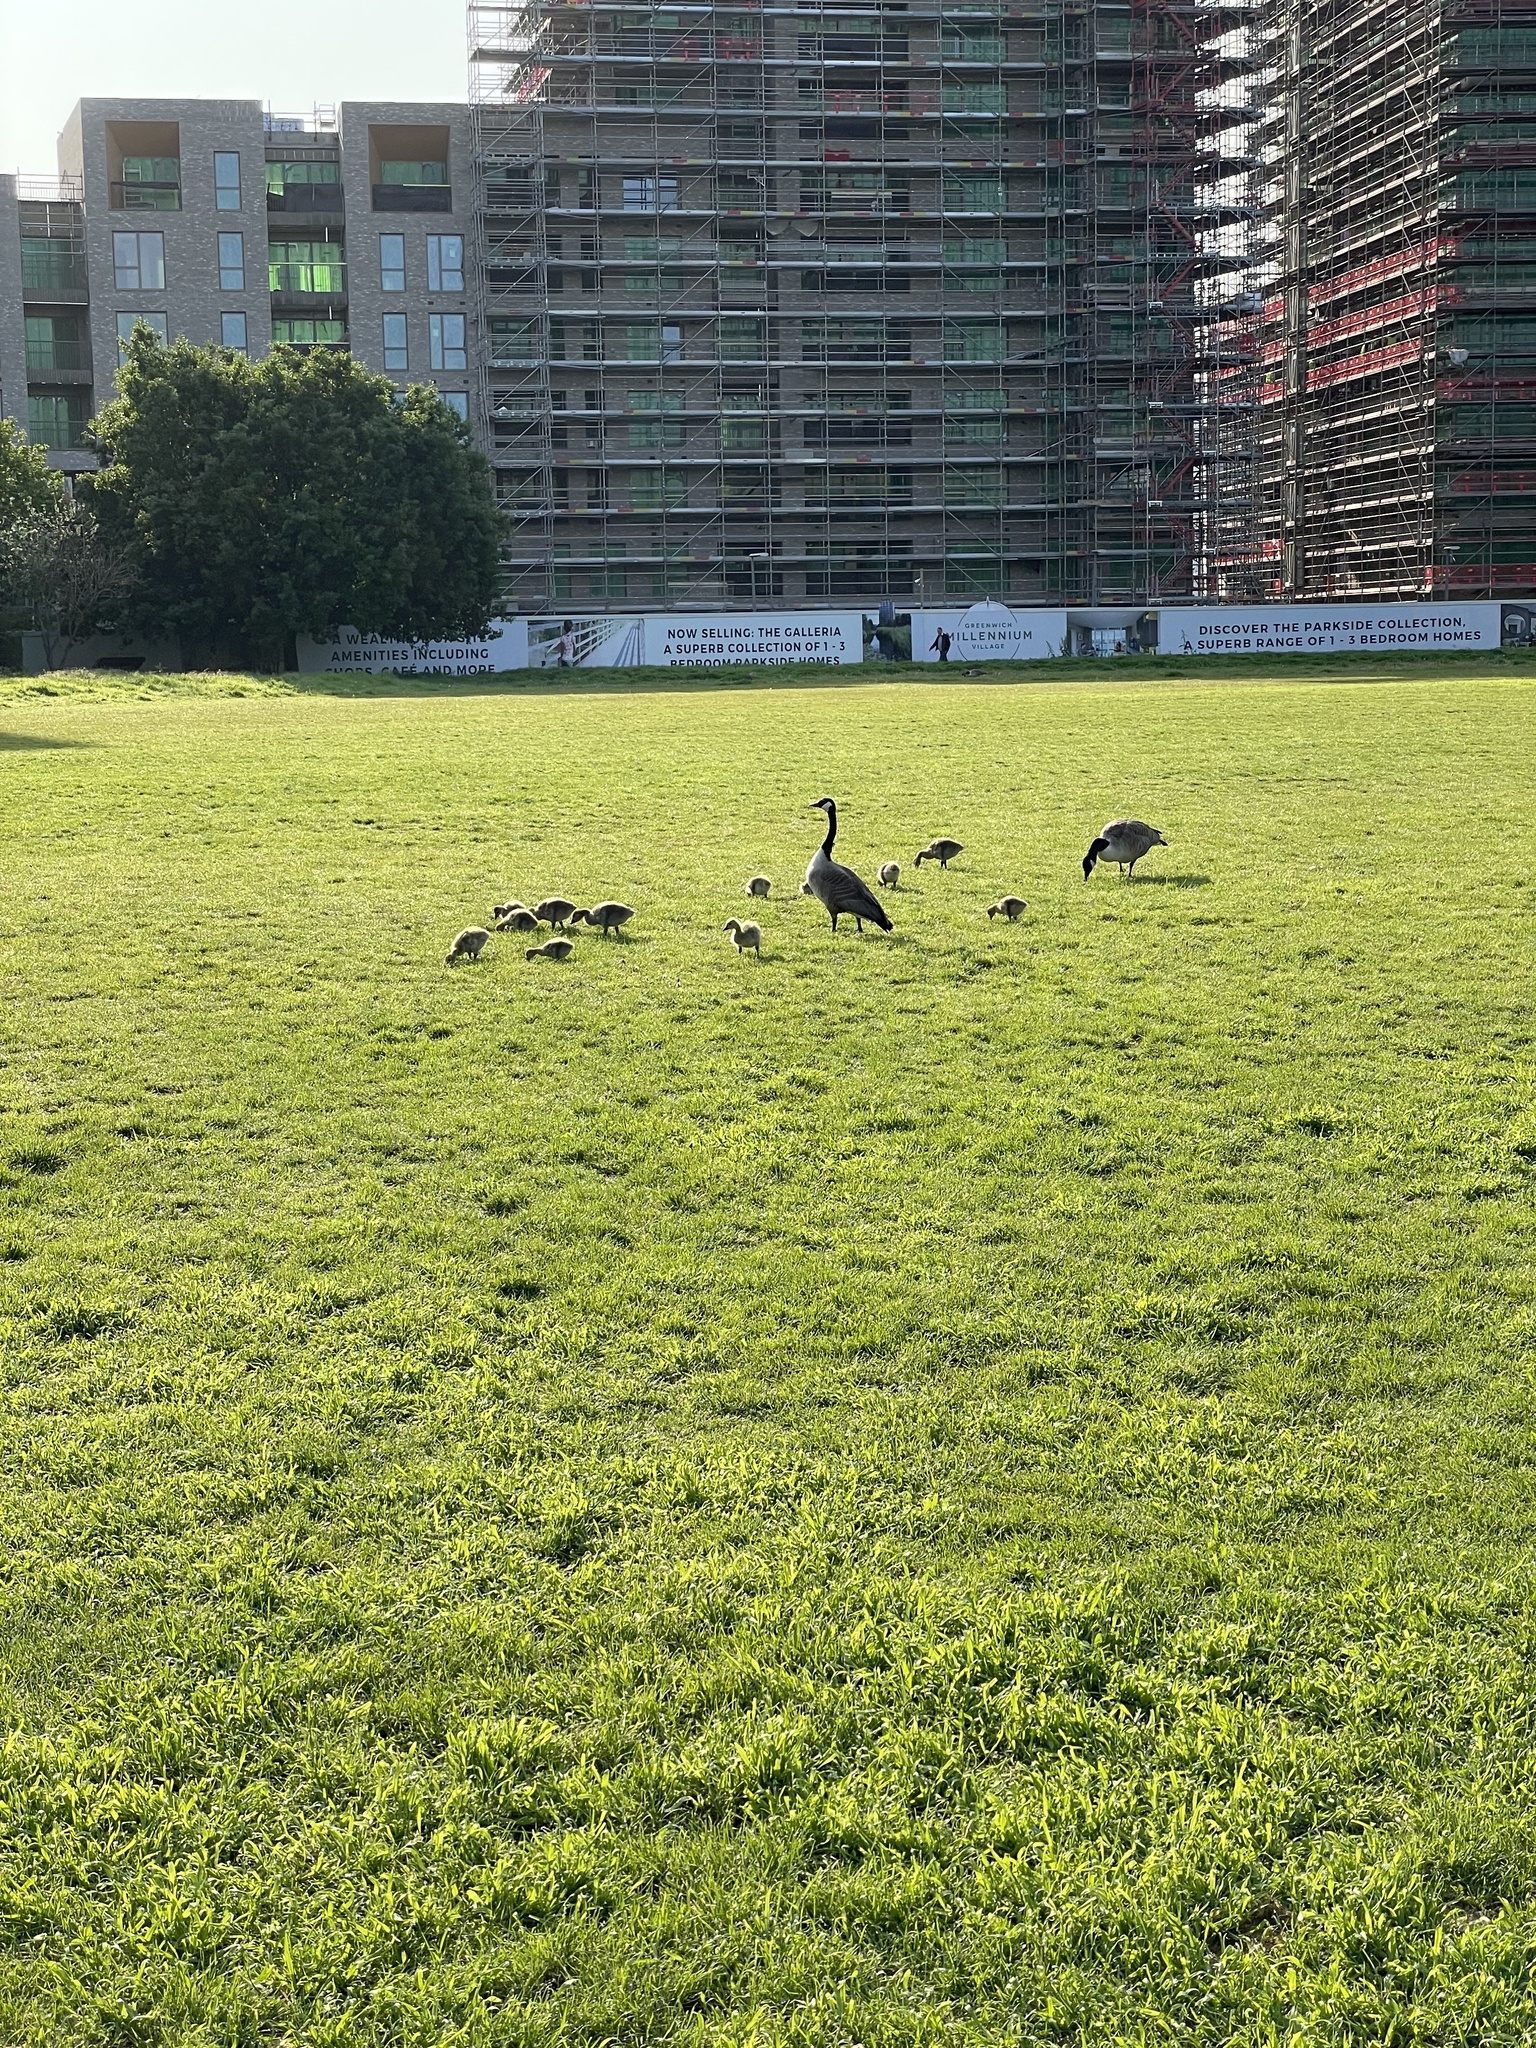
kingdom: Animalia
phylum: Chordata
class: Aves
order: Anseriformes
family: Anatidae
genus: Branta
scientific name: Branta canadensis
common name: Canada goose
